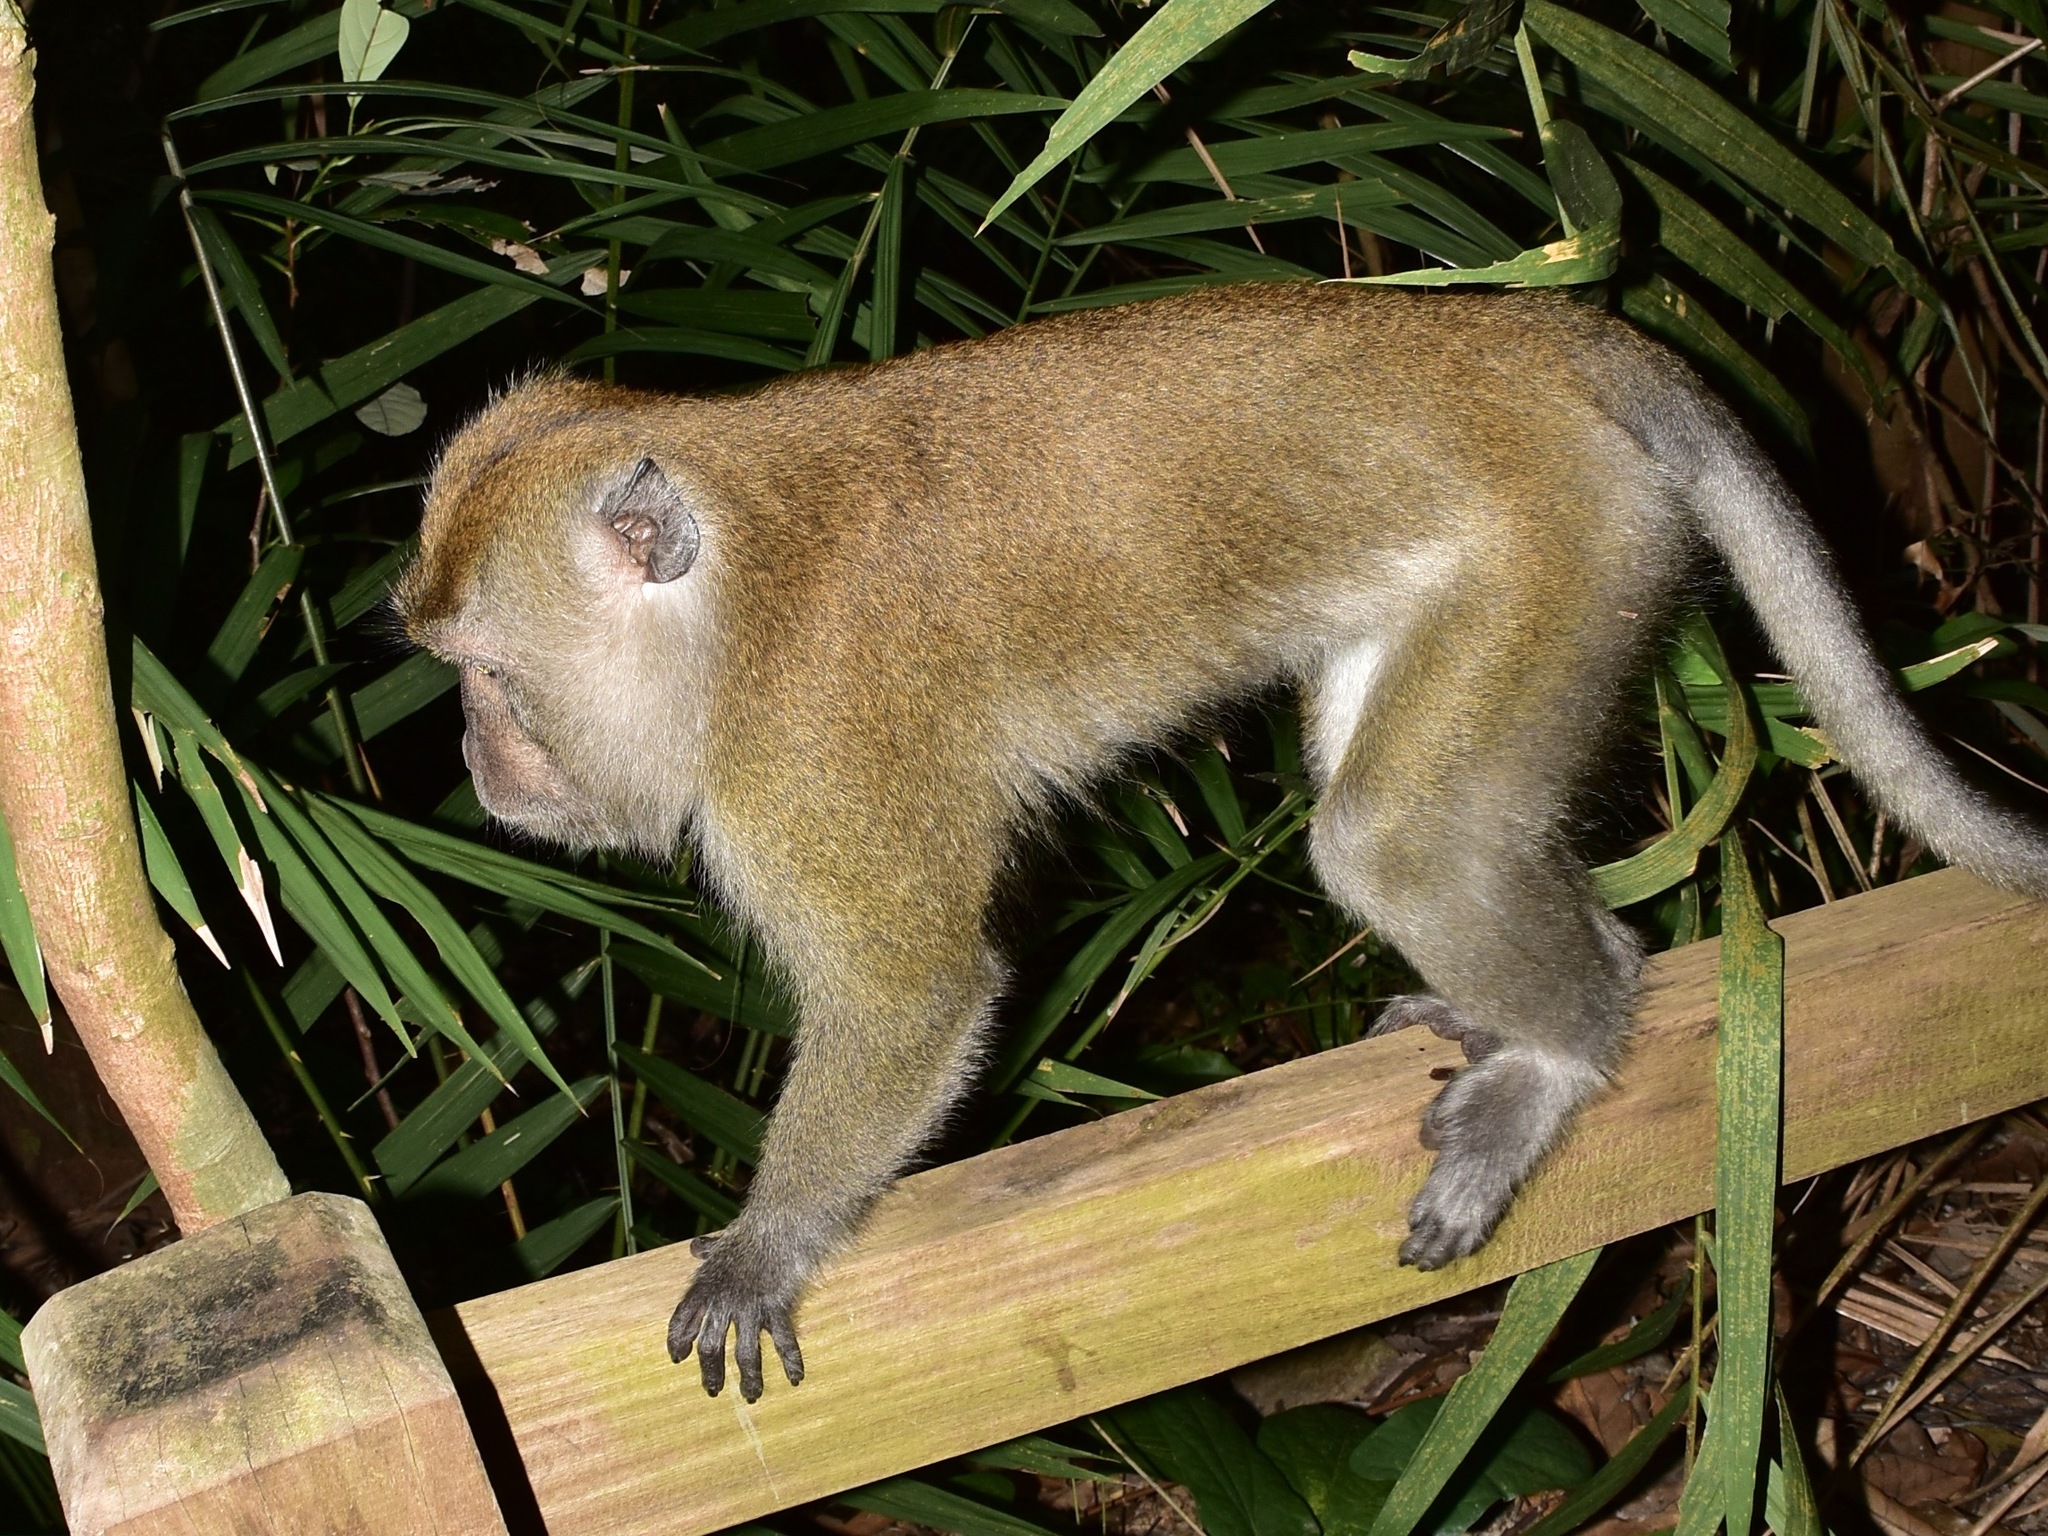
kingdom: Animalia
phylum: Chordata
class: Mammalia
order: Primates
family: Cercopithecidae
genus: Macaca
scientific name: Macaca fascicularis
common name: Crab-eating macaque
